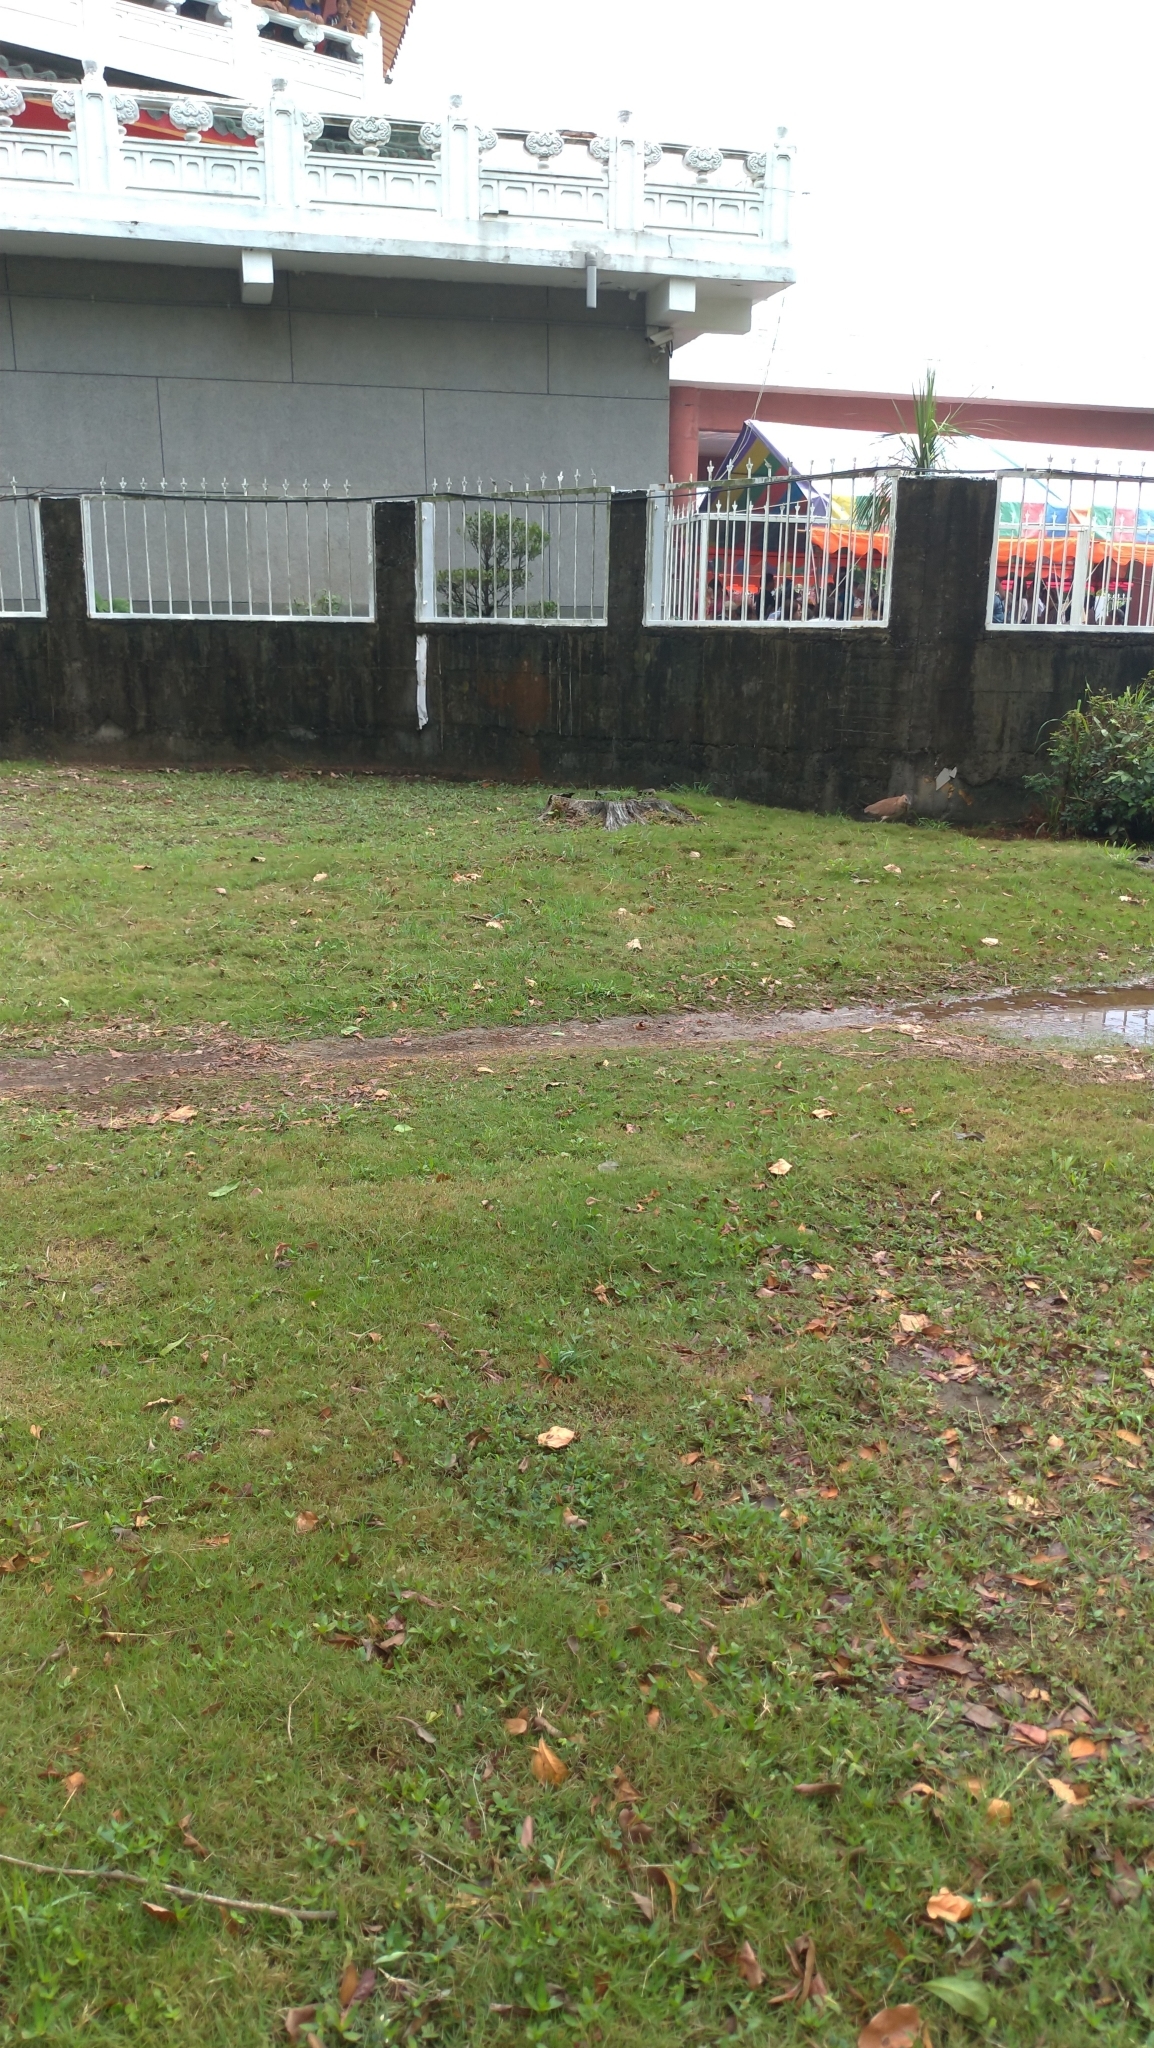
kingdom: Animalia
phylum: Chordata
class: Aves
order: Pelecaniformes
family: Ardeidae
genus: Gorsachius
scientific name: Gorsachius melanolophus
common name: Malayan night heron
